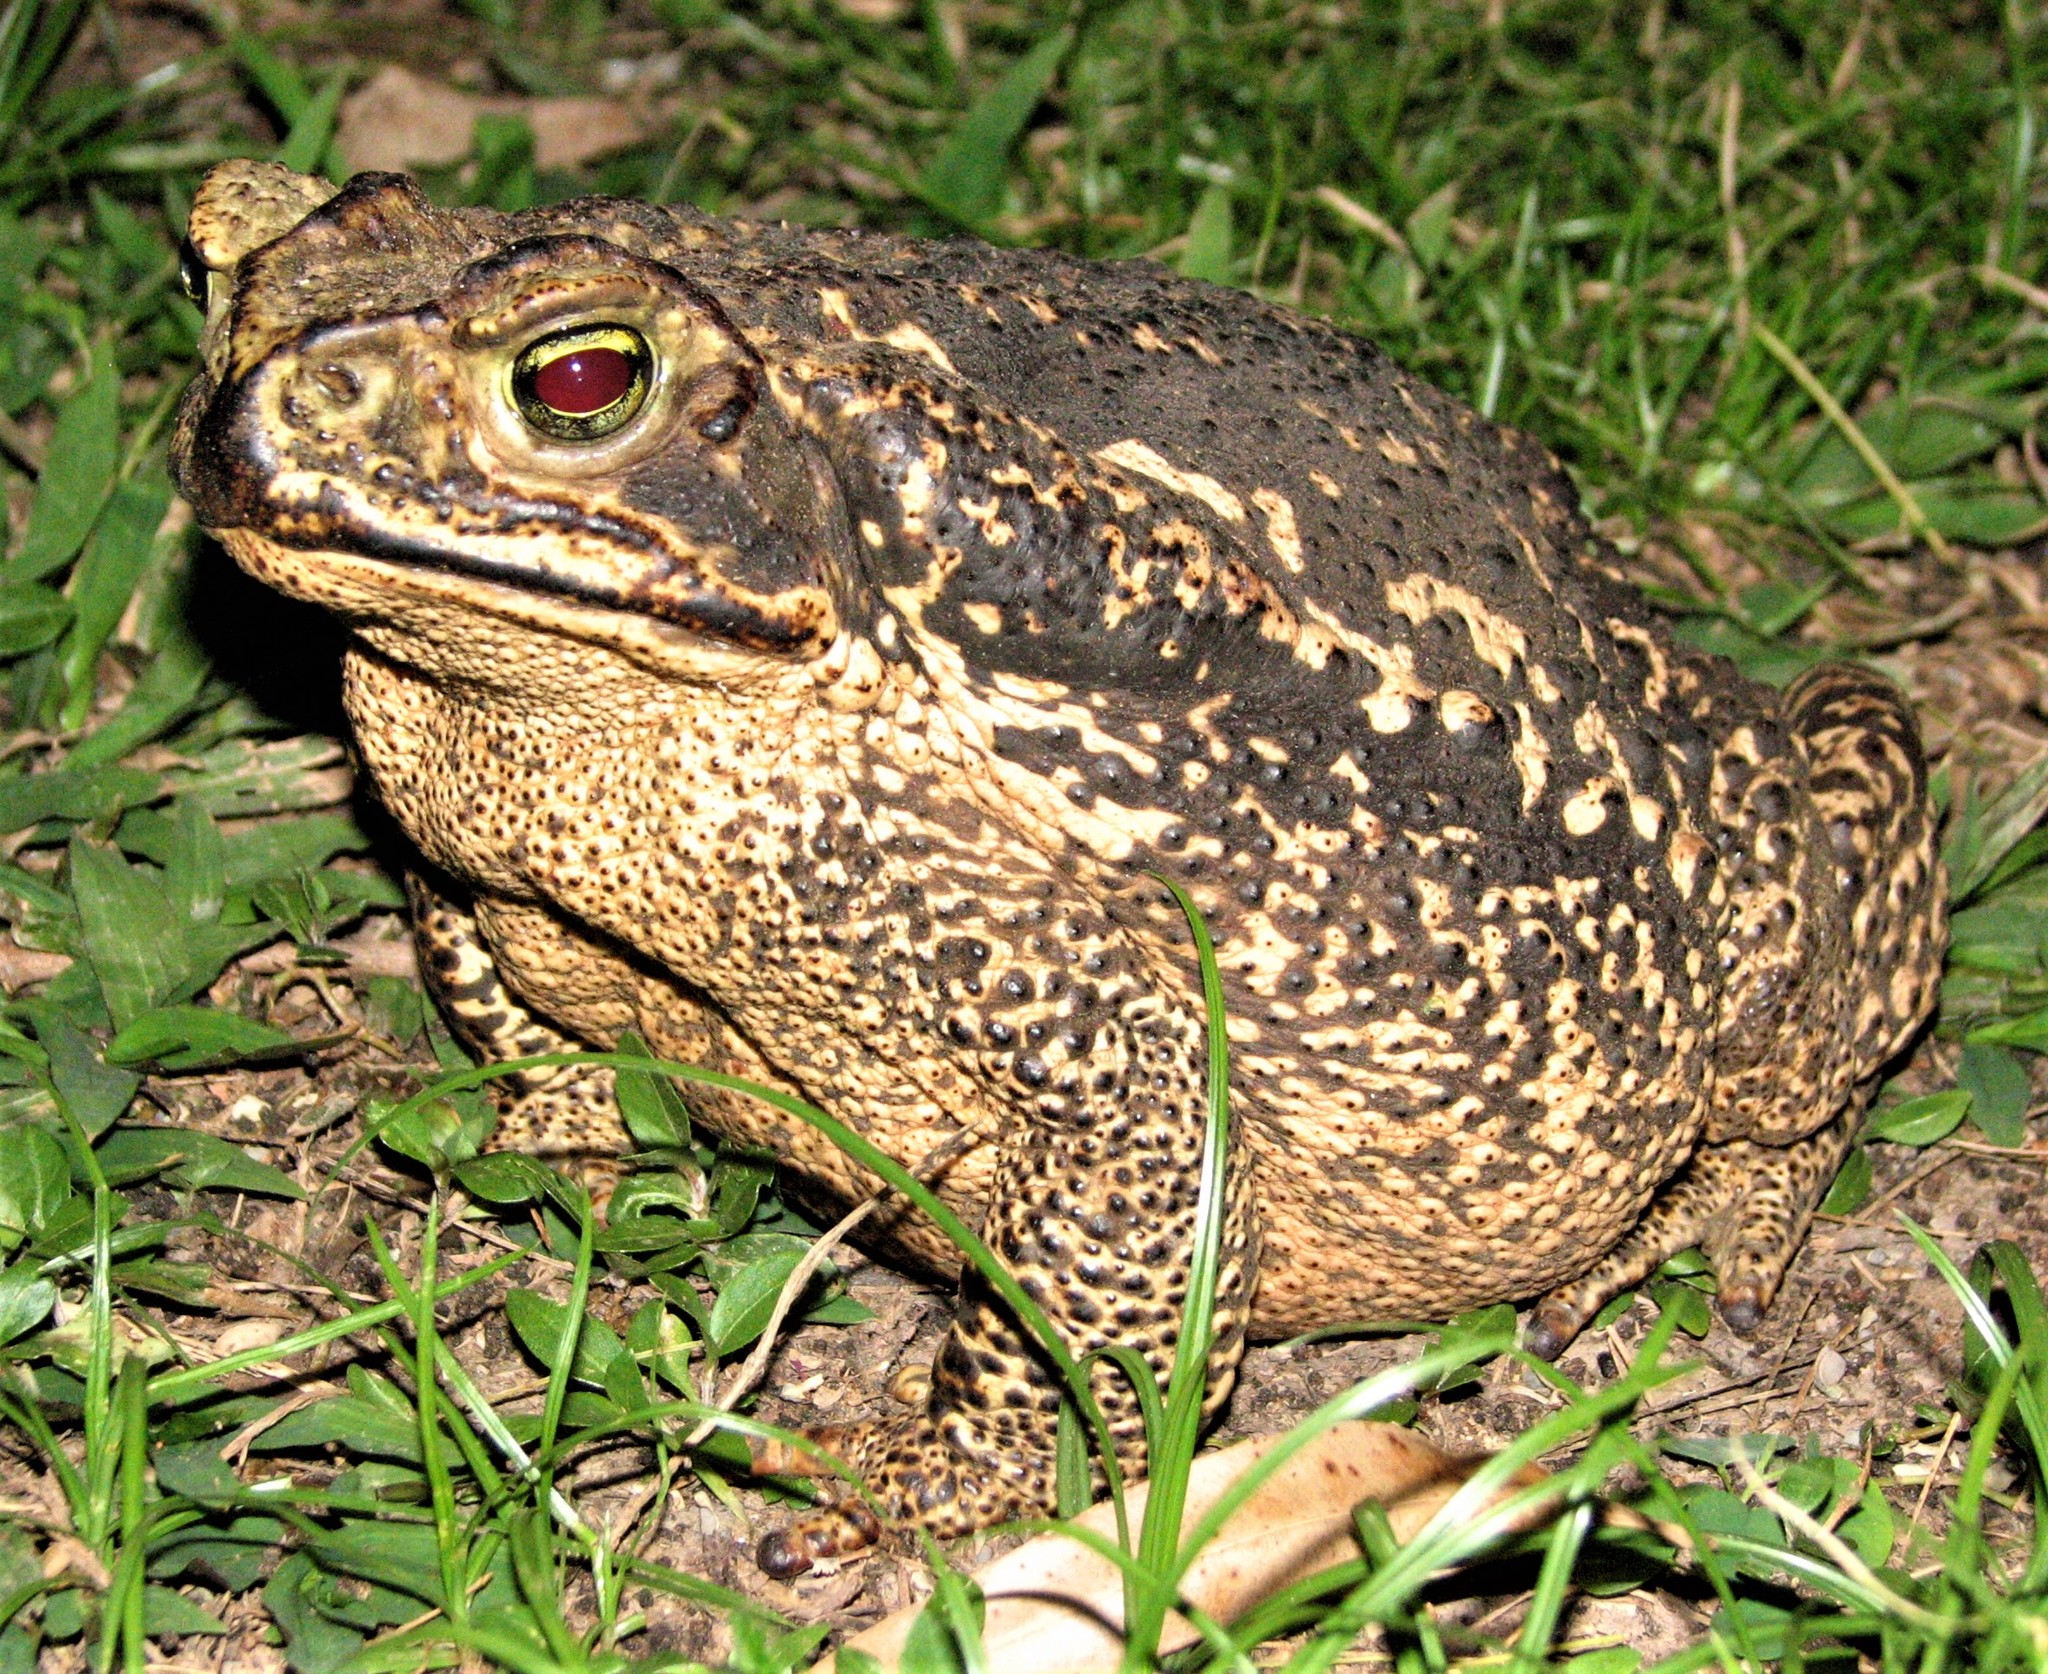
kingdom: Animalia
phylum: Chordata
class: Amphibia
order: Anura
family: Bufonidae
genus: Rhinella
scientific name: Rhinella diptycha
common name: Cope's toad
